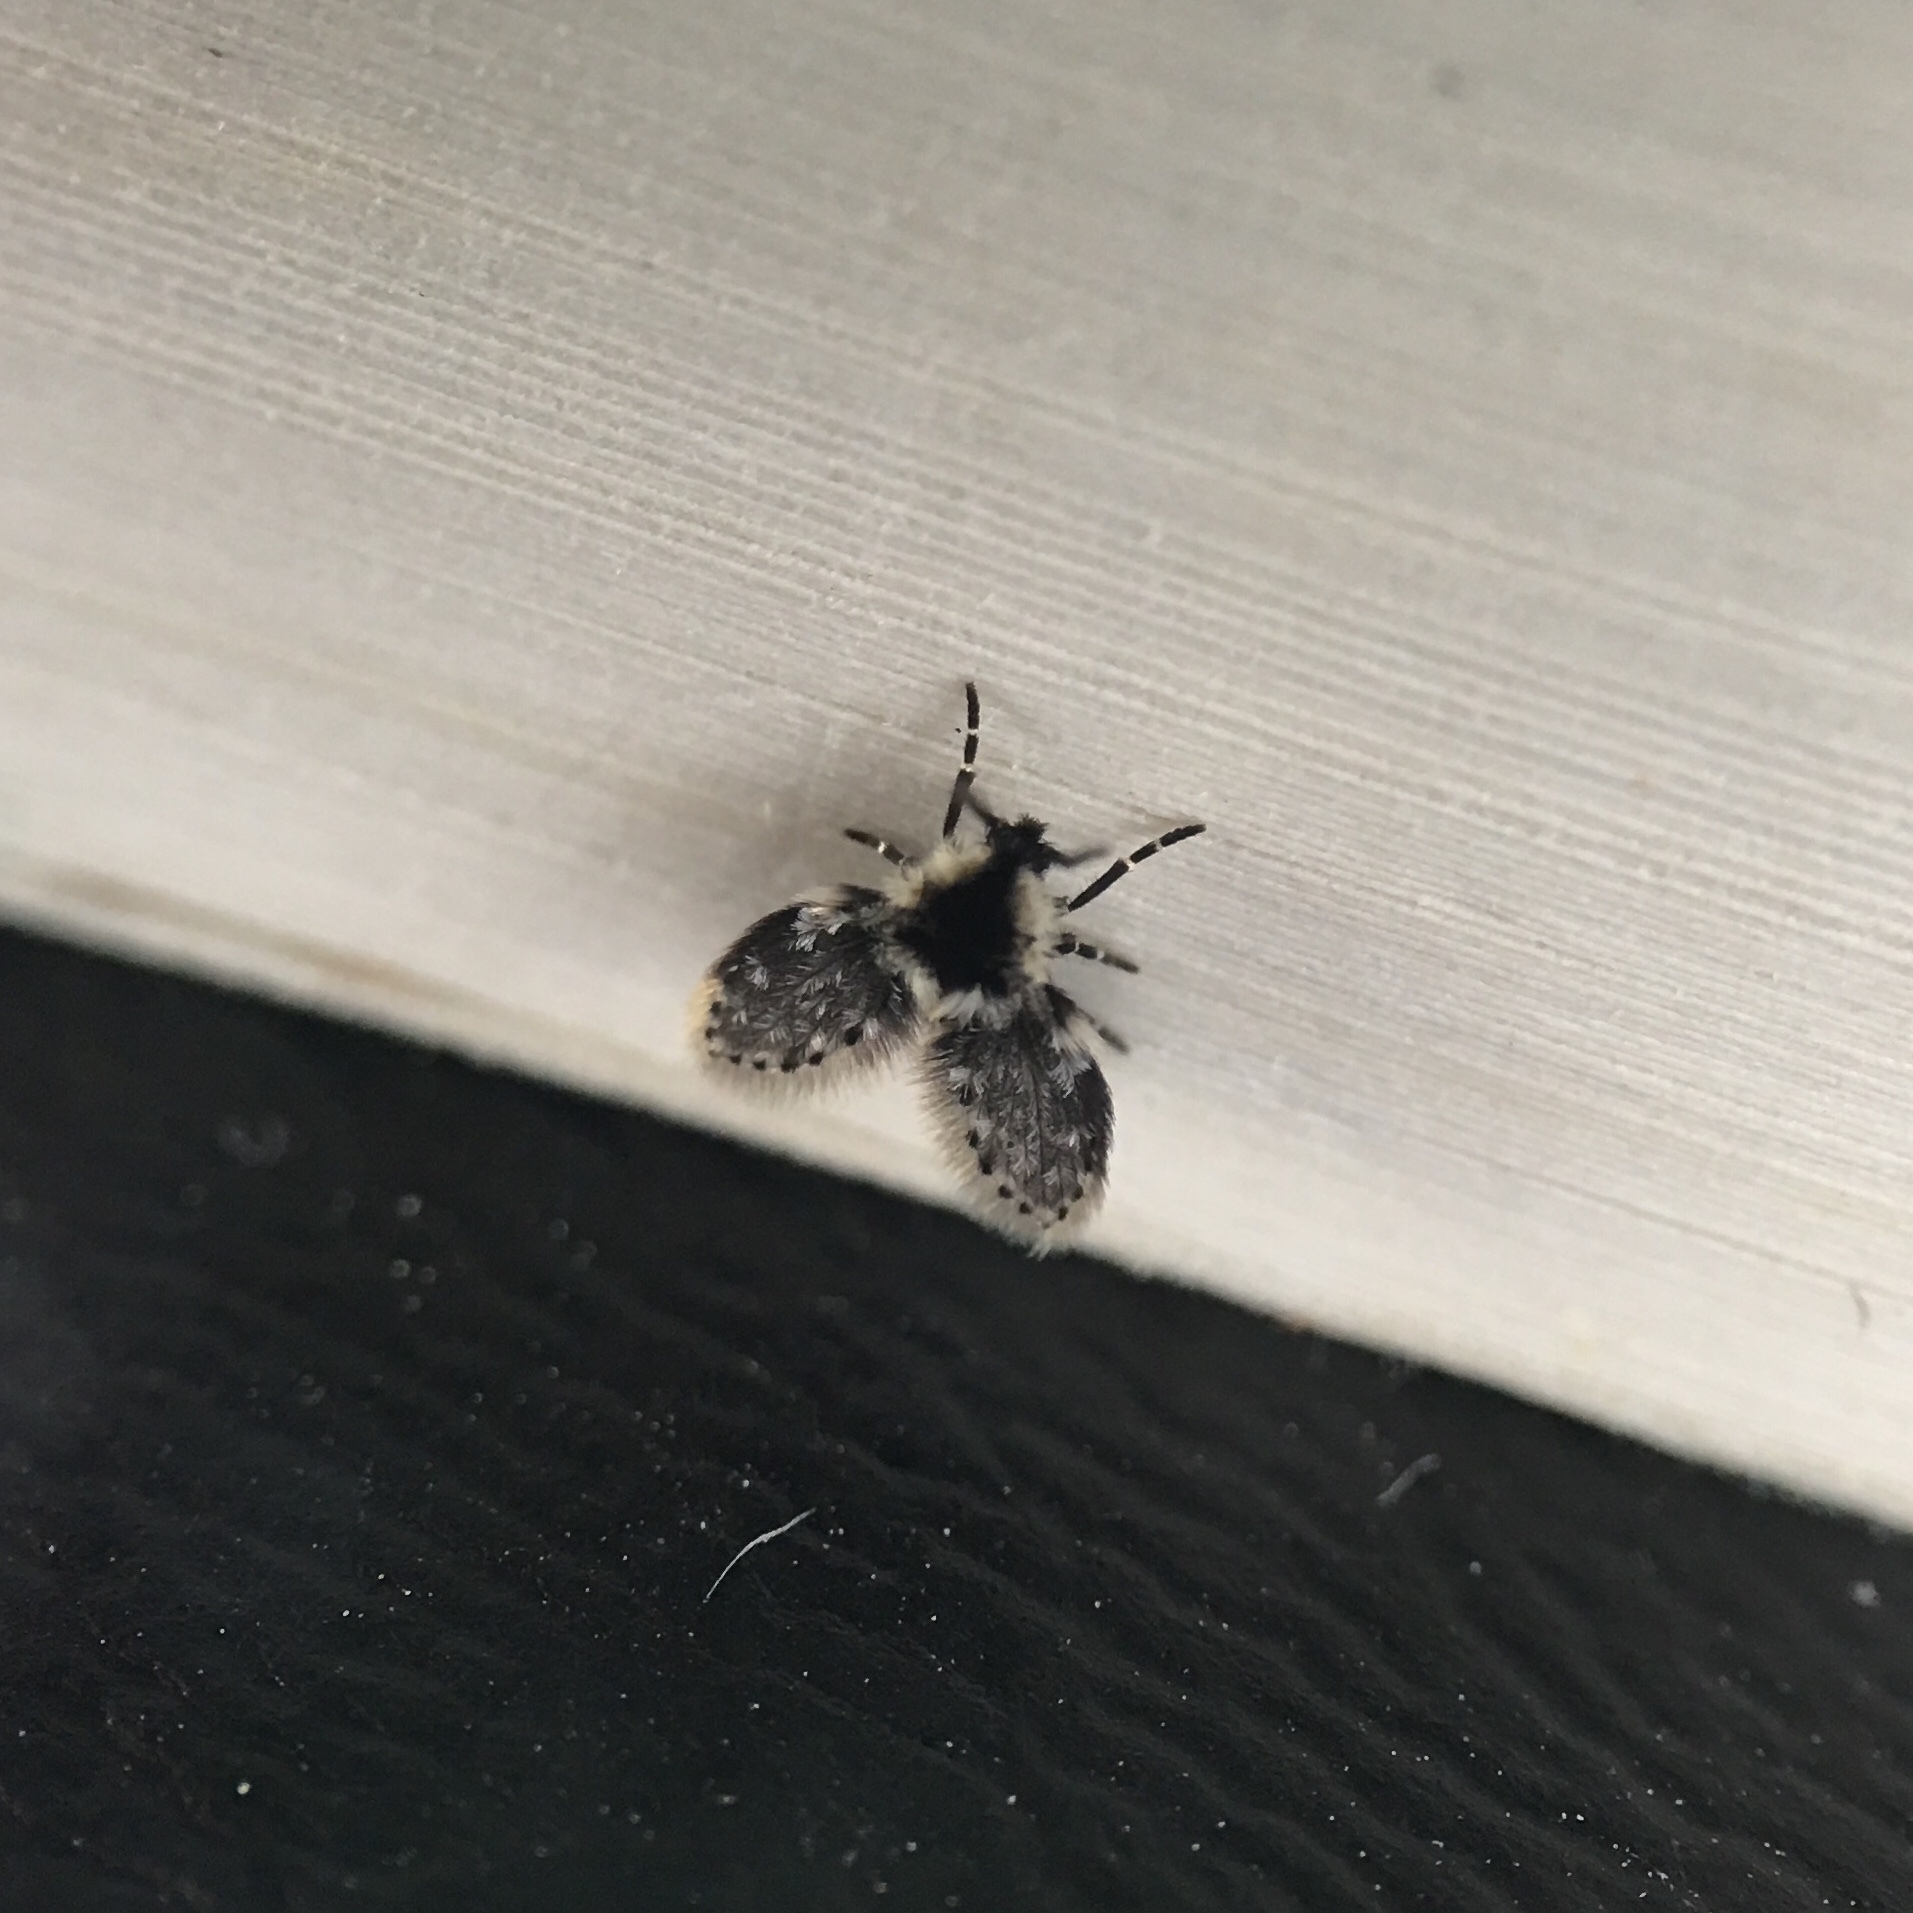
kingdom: Animalia
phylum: Arthropoda
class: Insecta
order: Diptera
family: Psychodidae
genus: Lepiseodina
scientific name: Lepiseodina
